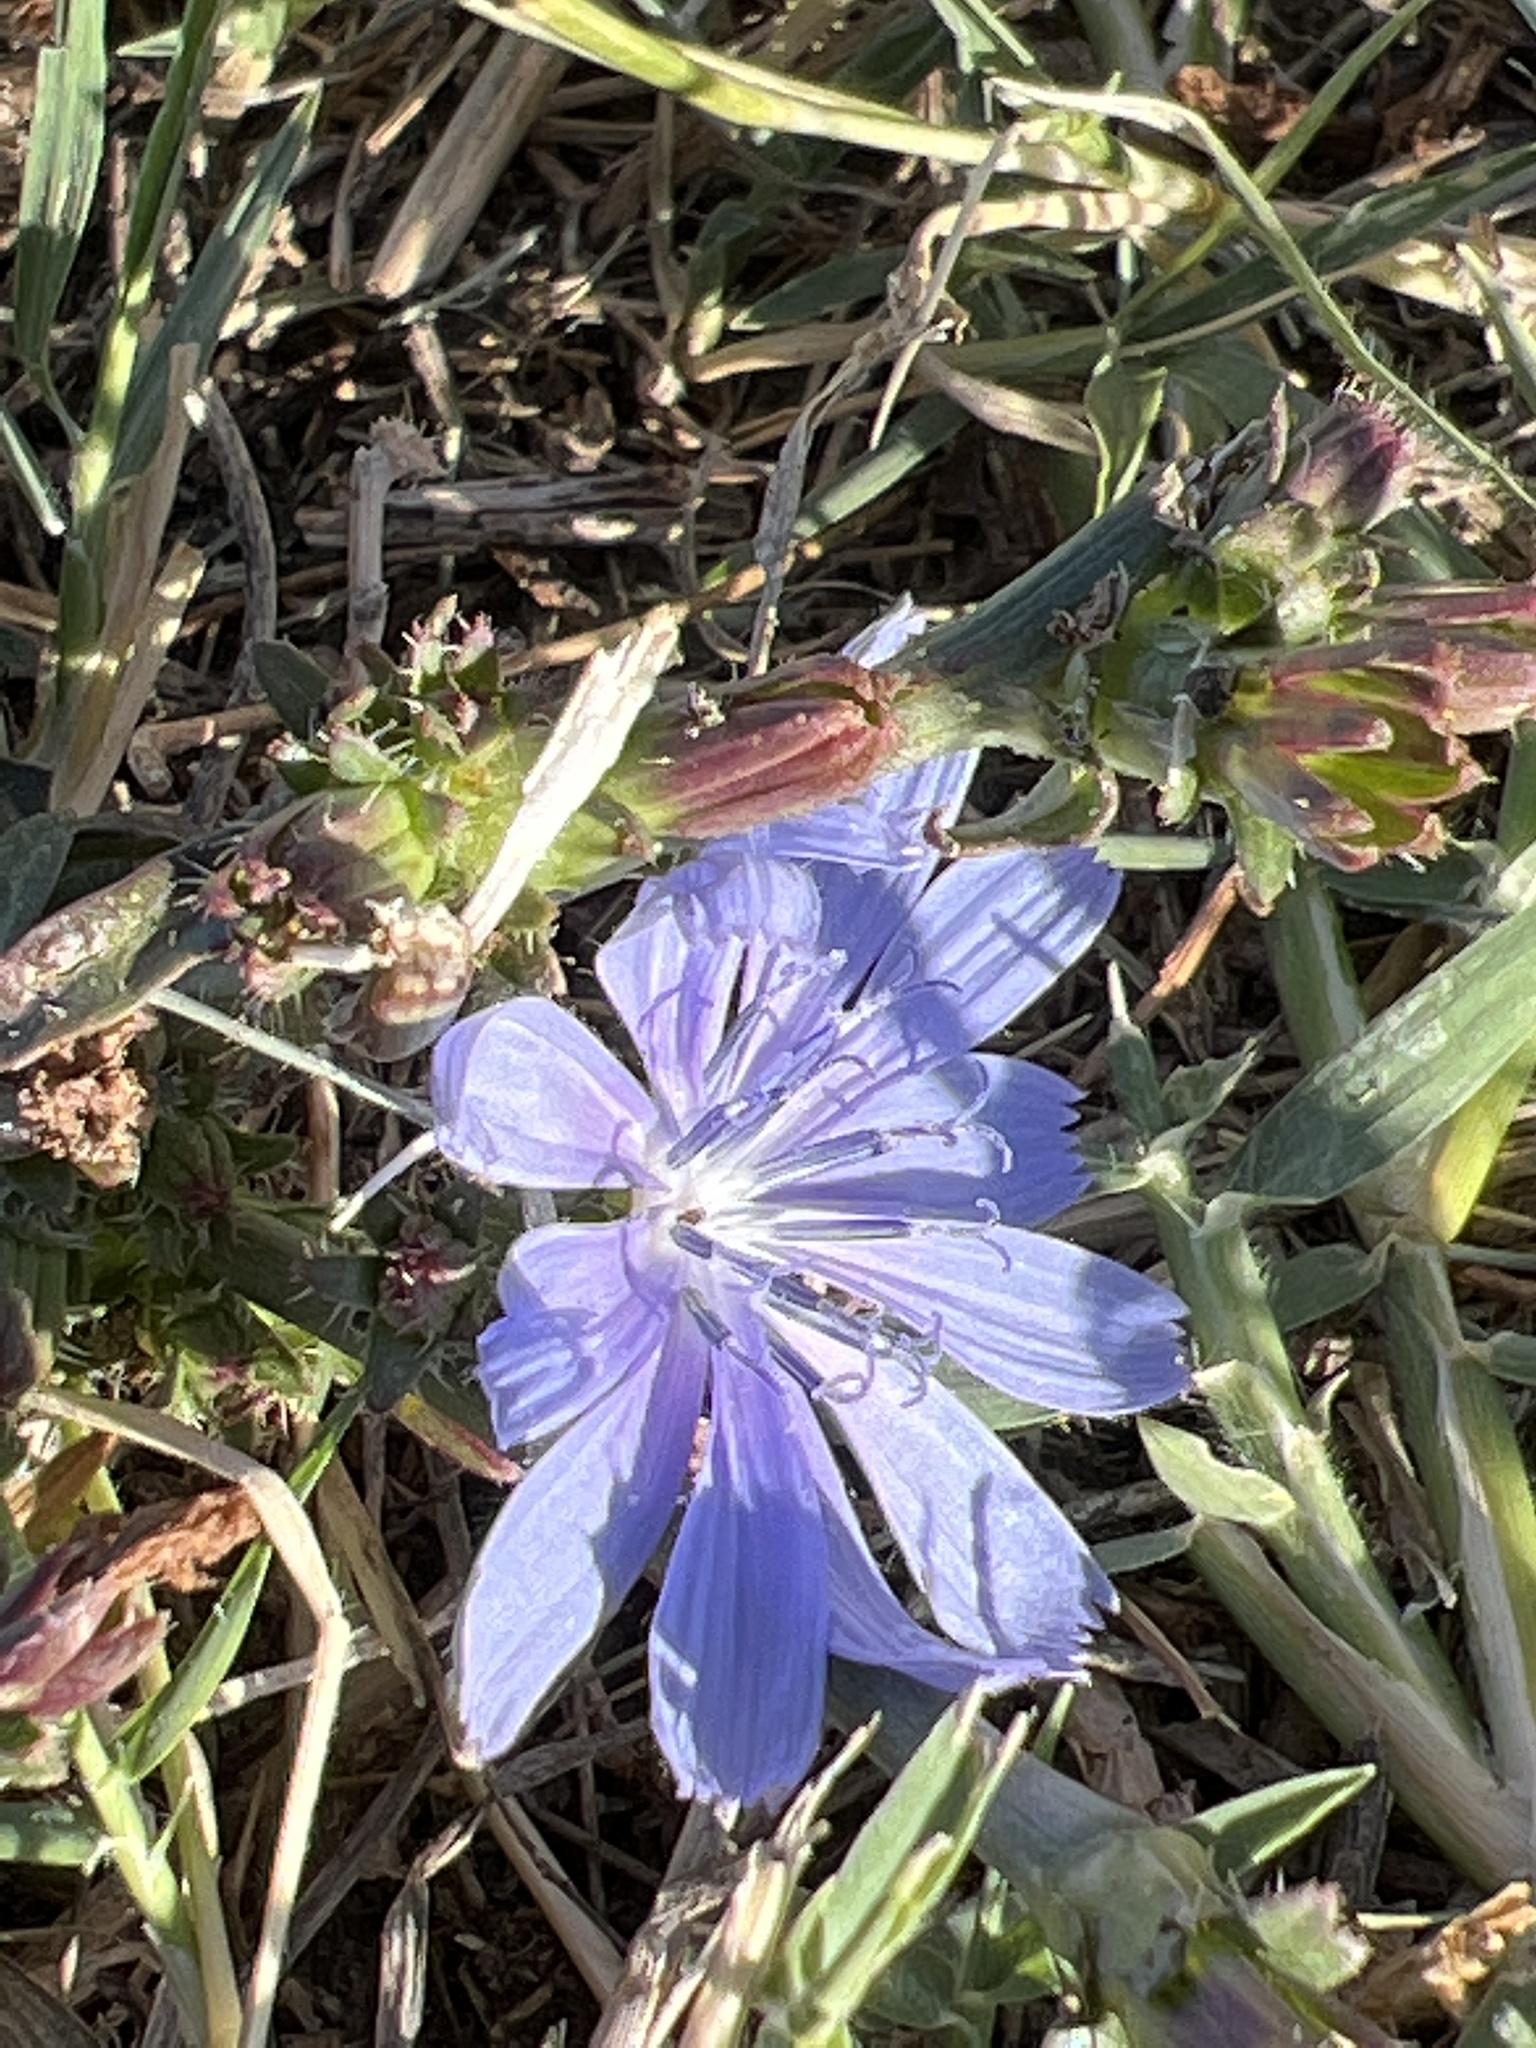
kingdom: Plantae
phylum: Tracheophyta
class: Magnoliopsida
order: Asterales
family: Asteraceae
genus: Cichorium
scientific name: Cichorium intybus
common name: Chicory
